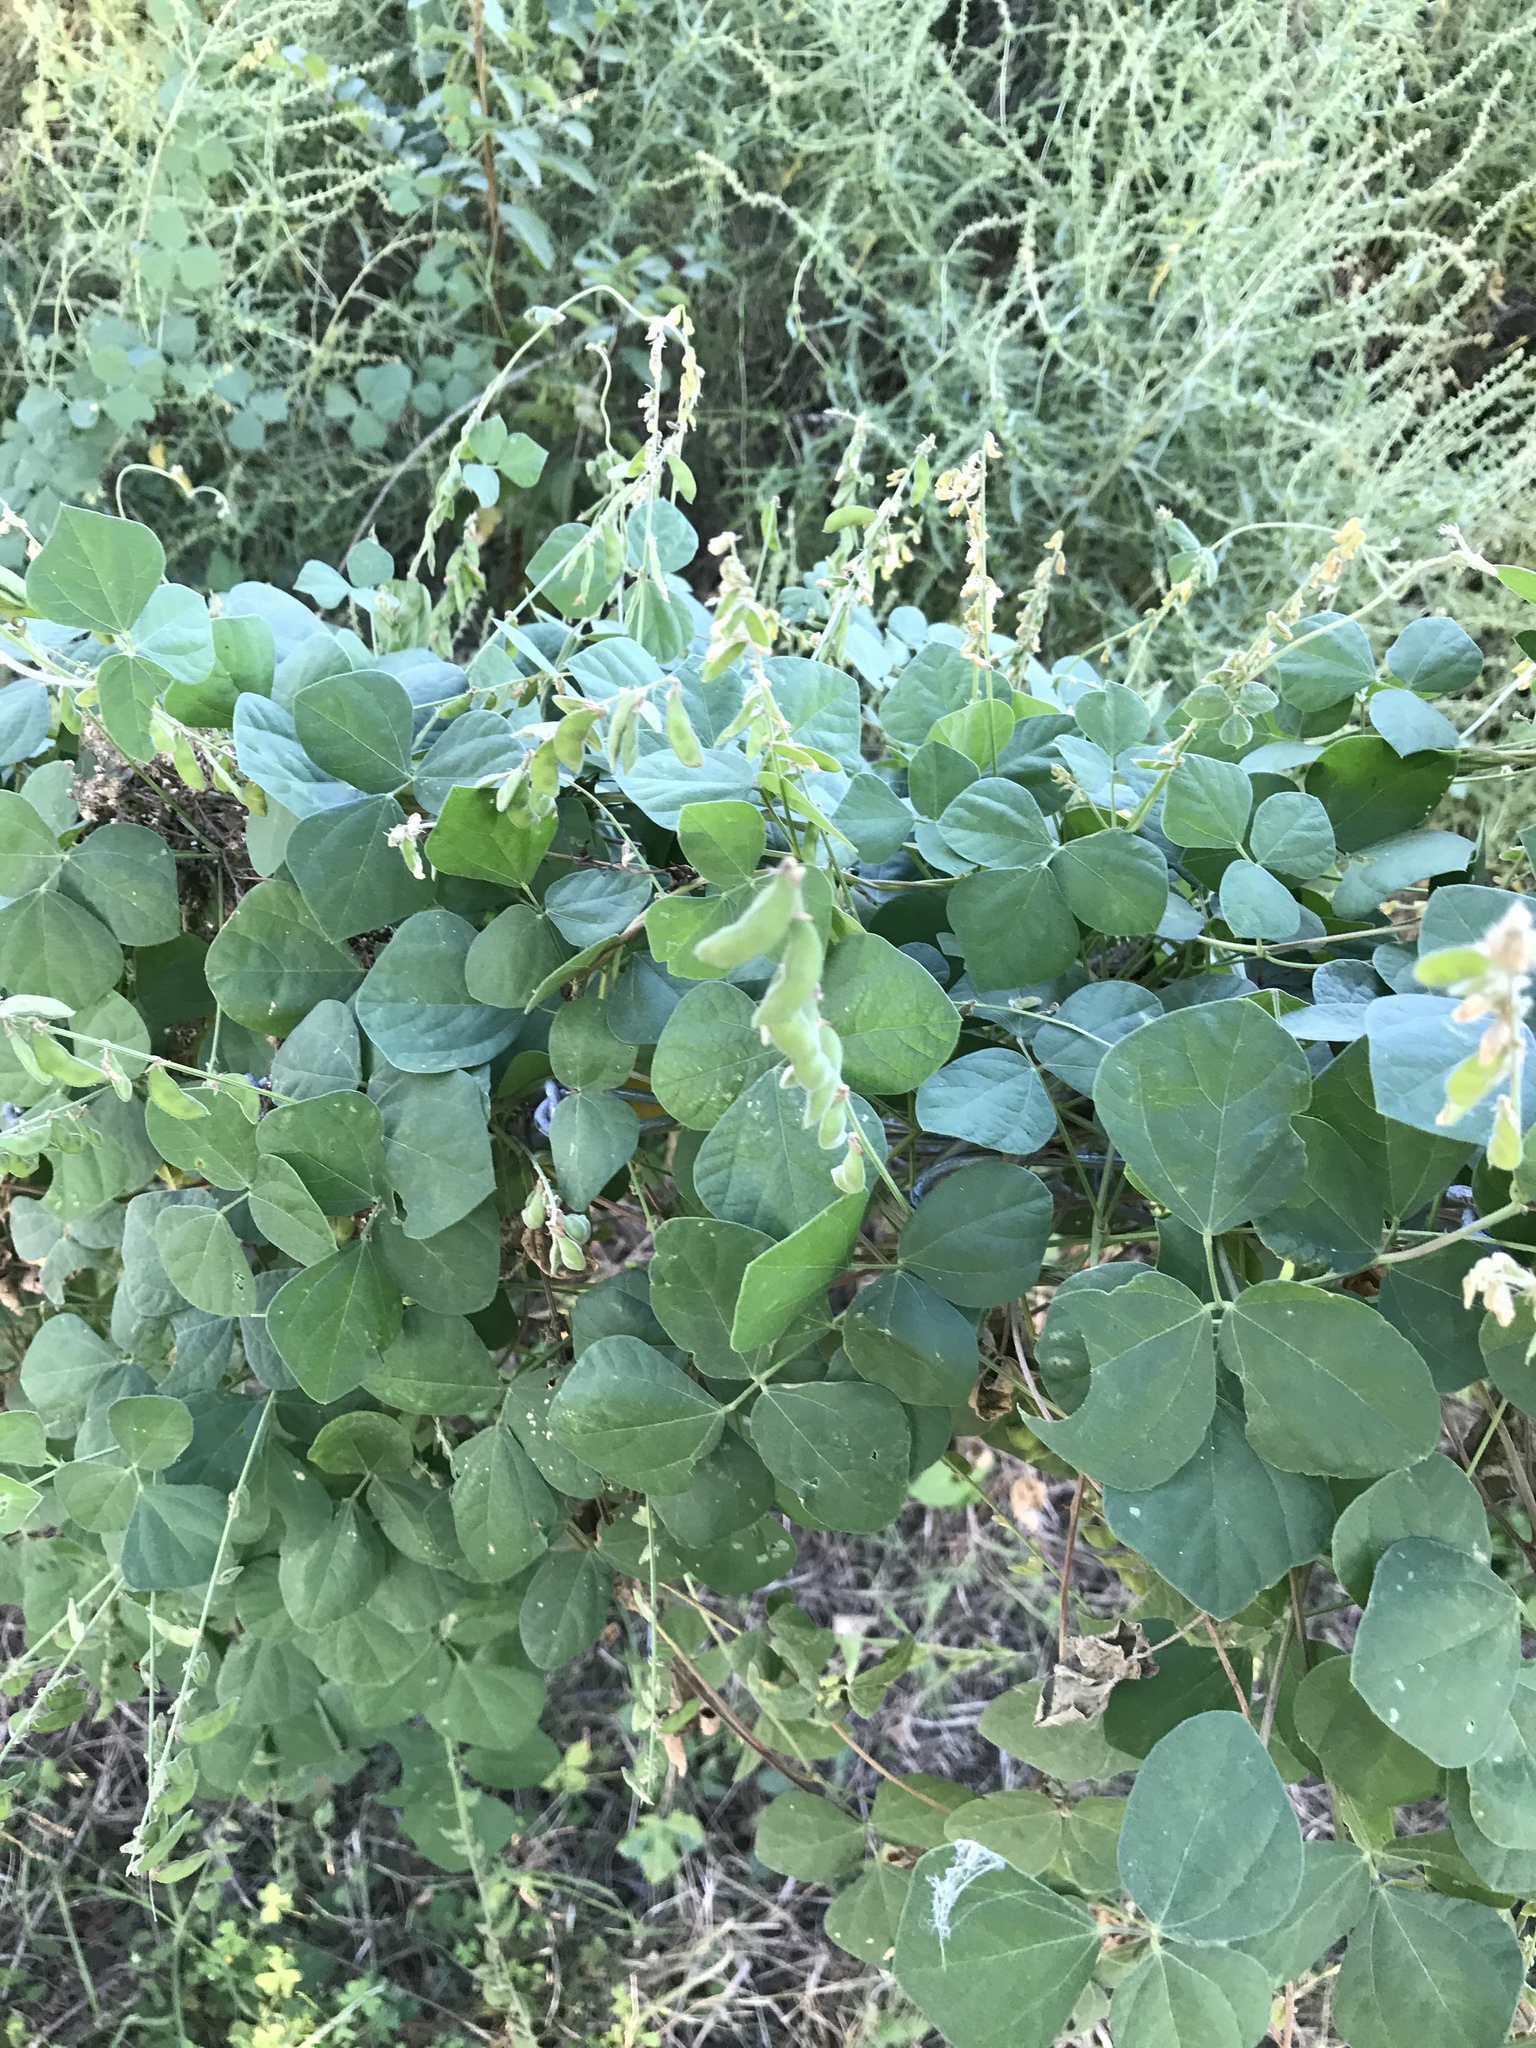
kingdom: Plantae
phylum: Tracheophyta
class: Magnoliopsida
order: Fabales
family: Fabaceae
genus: Rhynchosia
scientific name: Rhynchosia minima
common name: Least snoutbean
